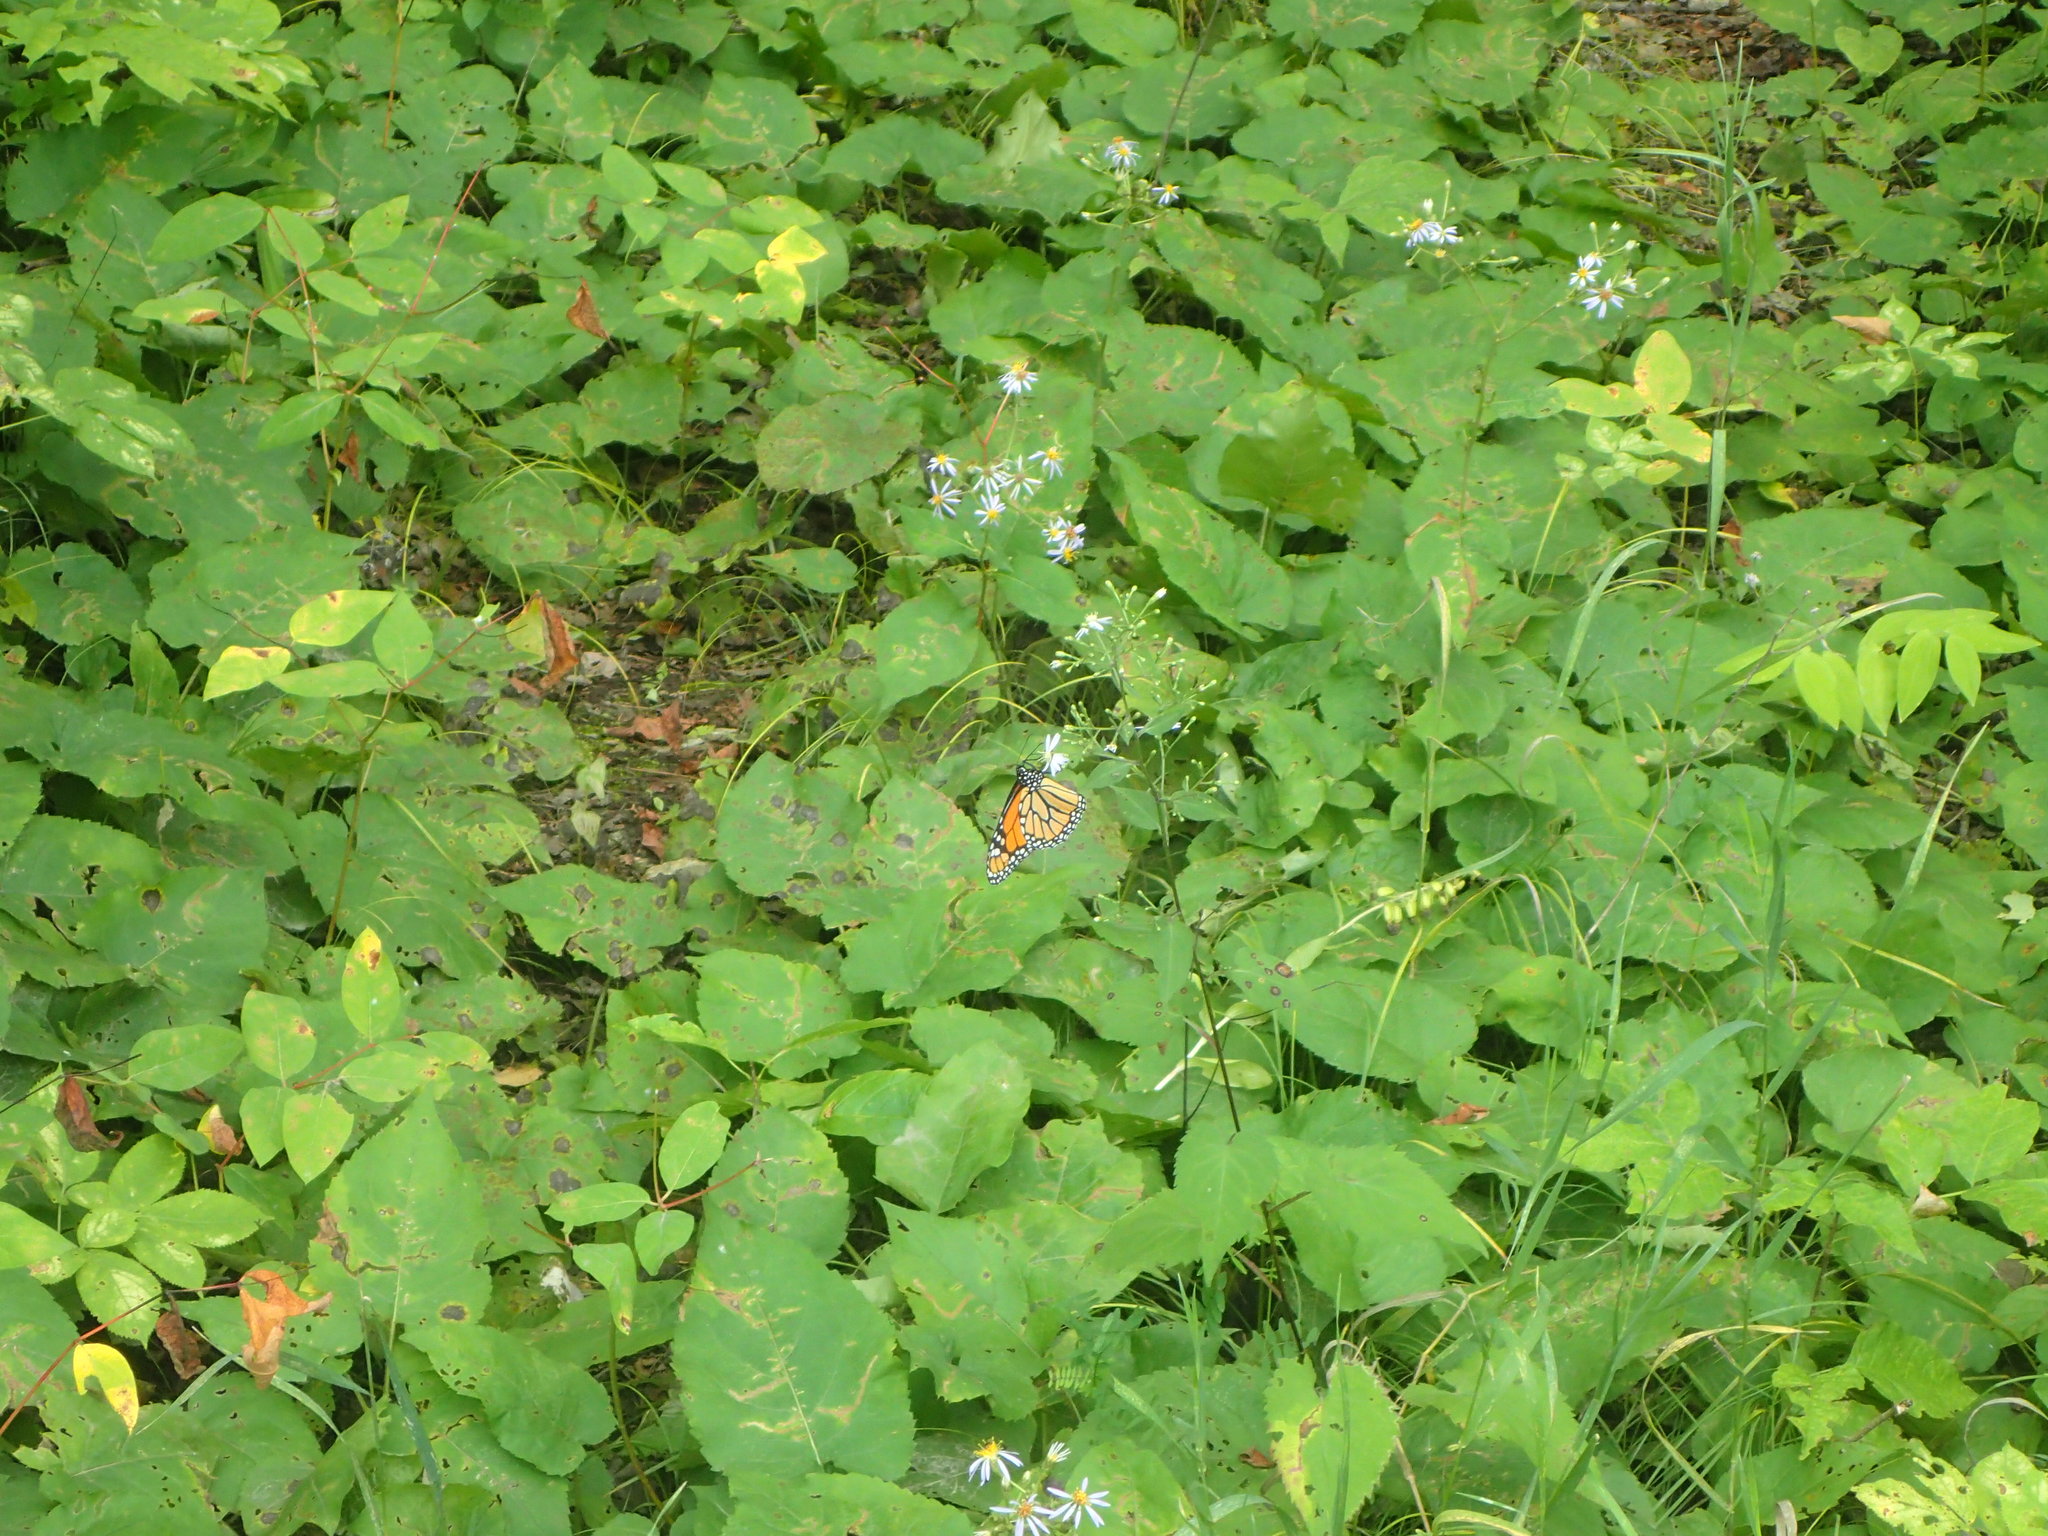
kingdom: Animalia
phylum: Arthropoda
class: Insecta
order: Lepidoptera
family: Nymphalidae
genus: Danaus
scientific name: Danaus plexippus
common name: Monarch
